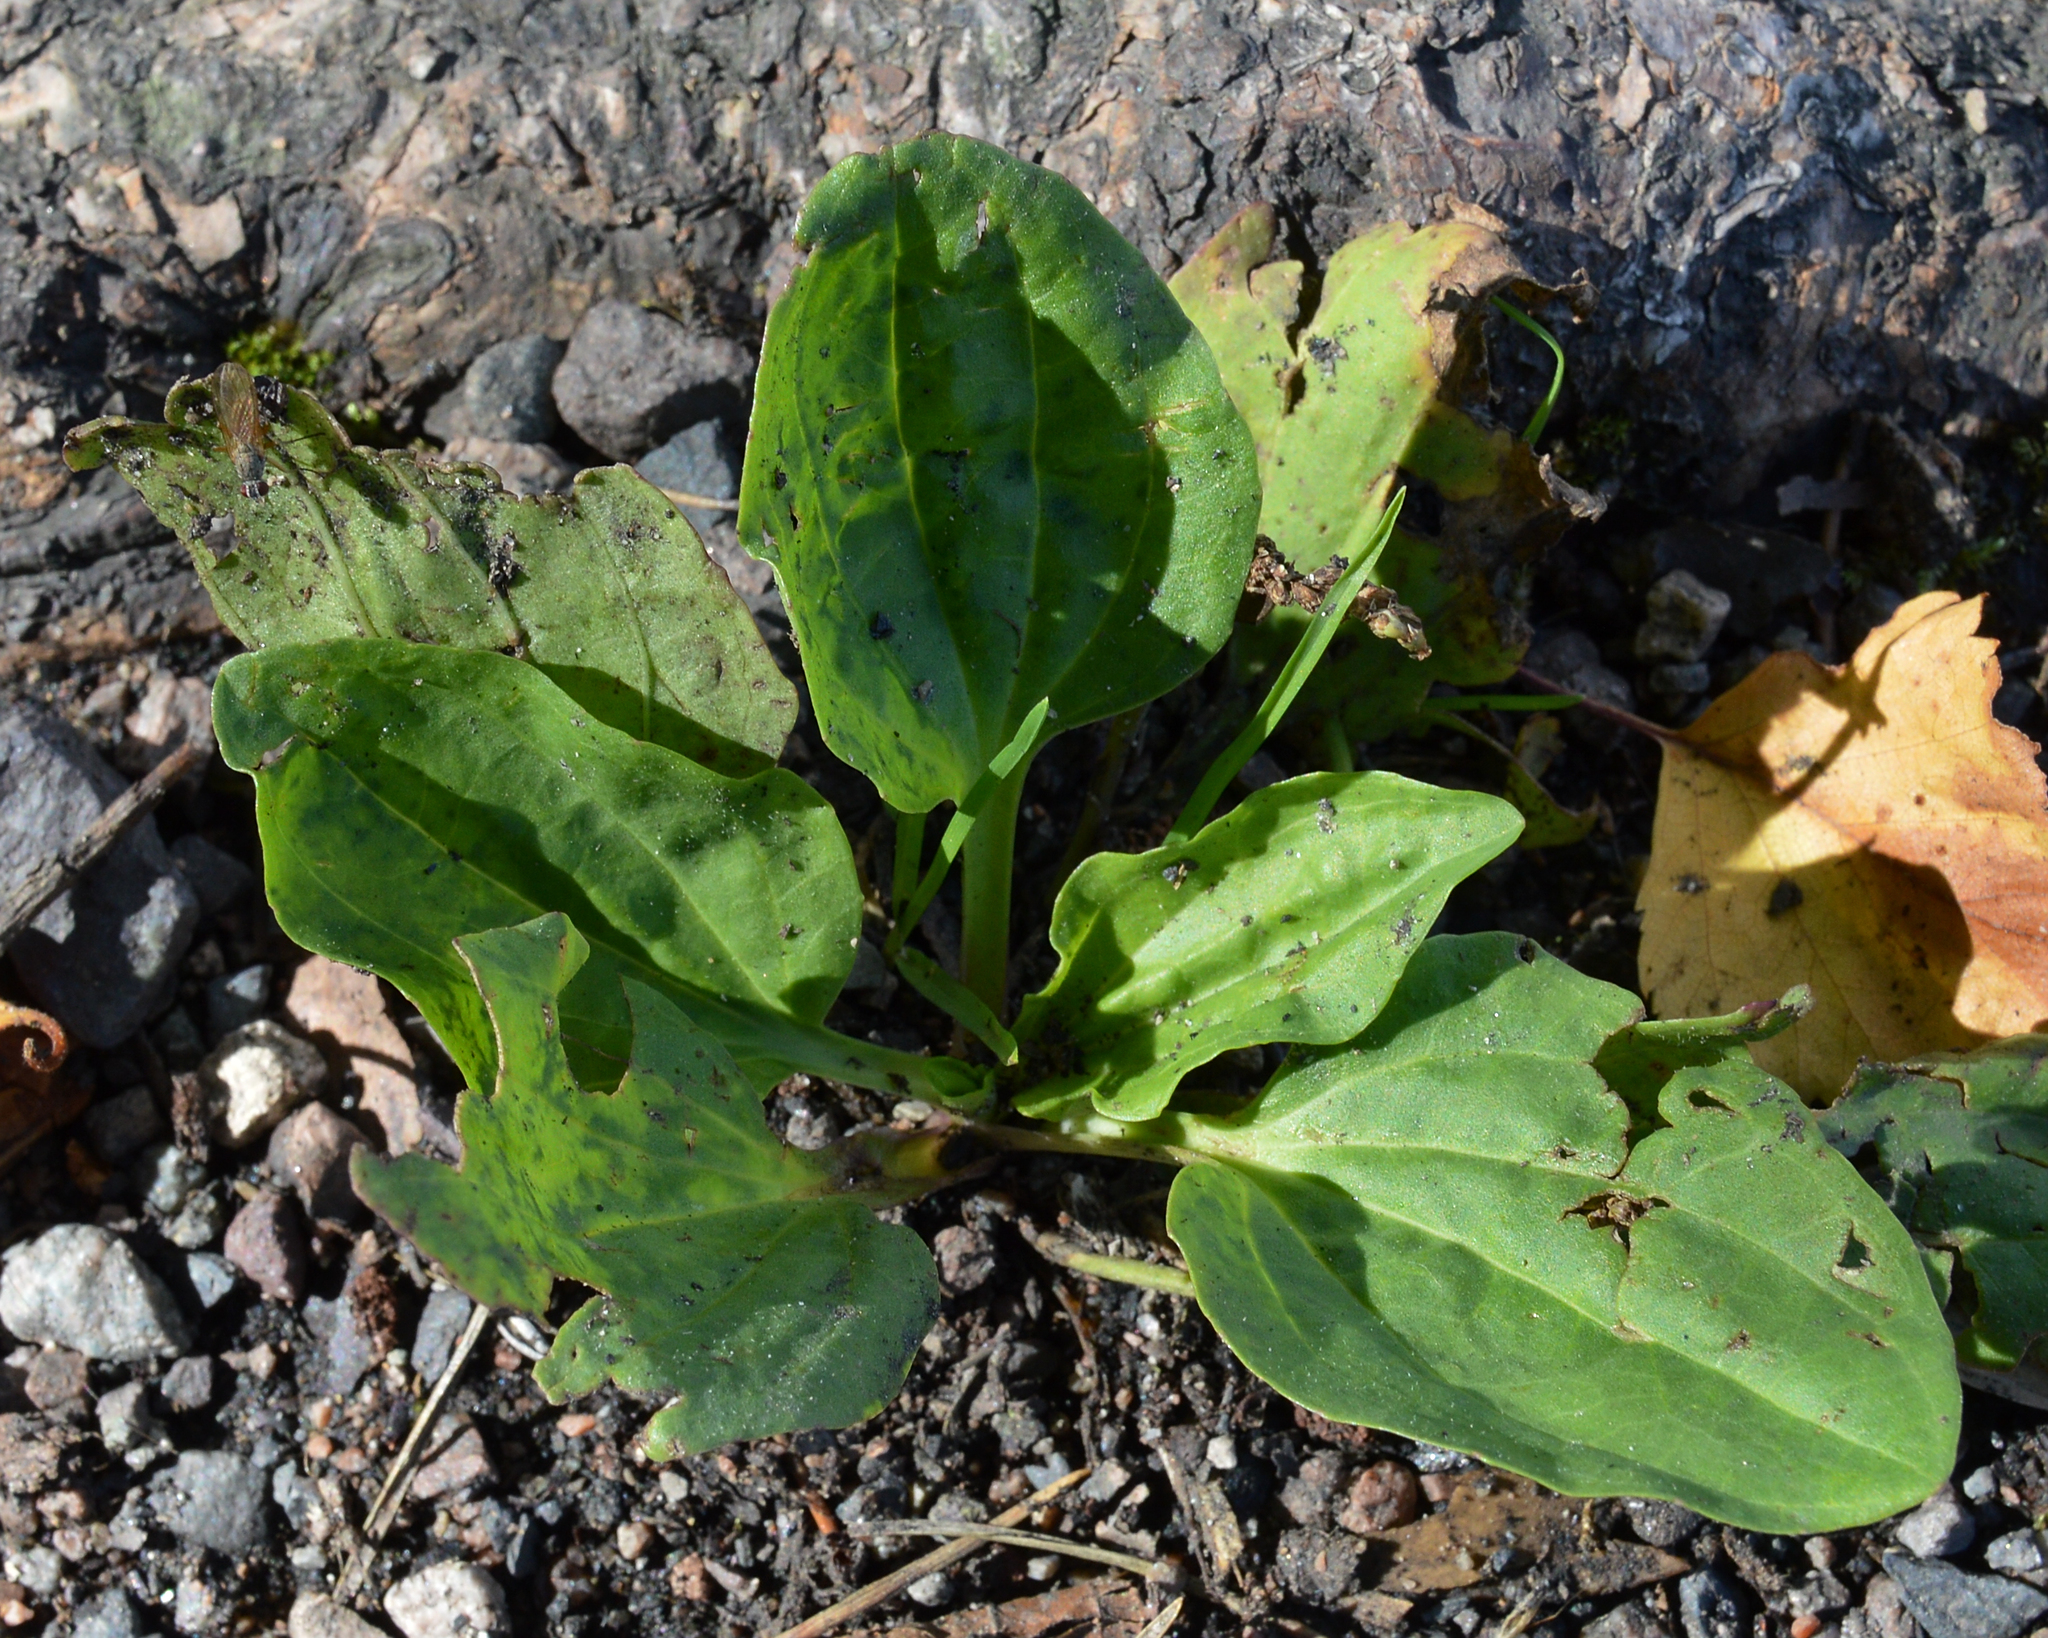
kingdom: Plantae
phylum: Tracheophyta
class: Magnoliopsida
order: Lamiales
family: Plantaginaceae
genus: Plantago
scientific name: Plantago major
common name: Common plantain
